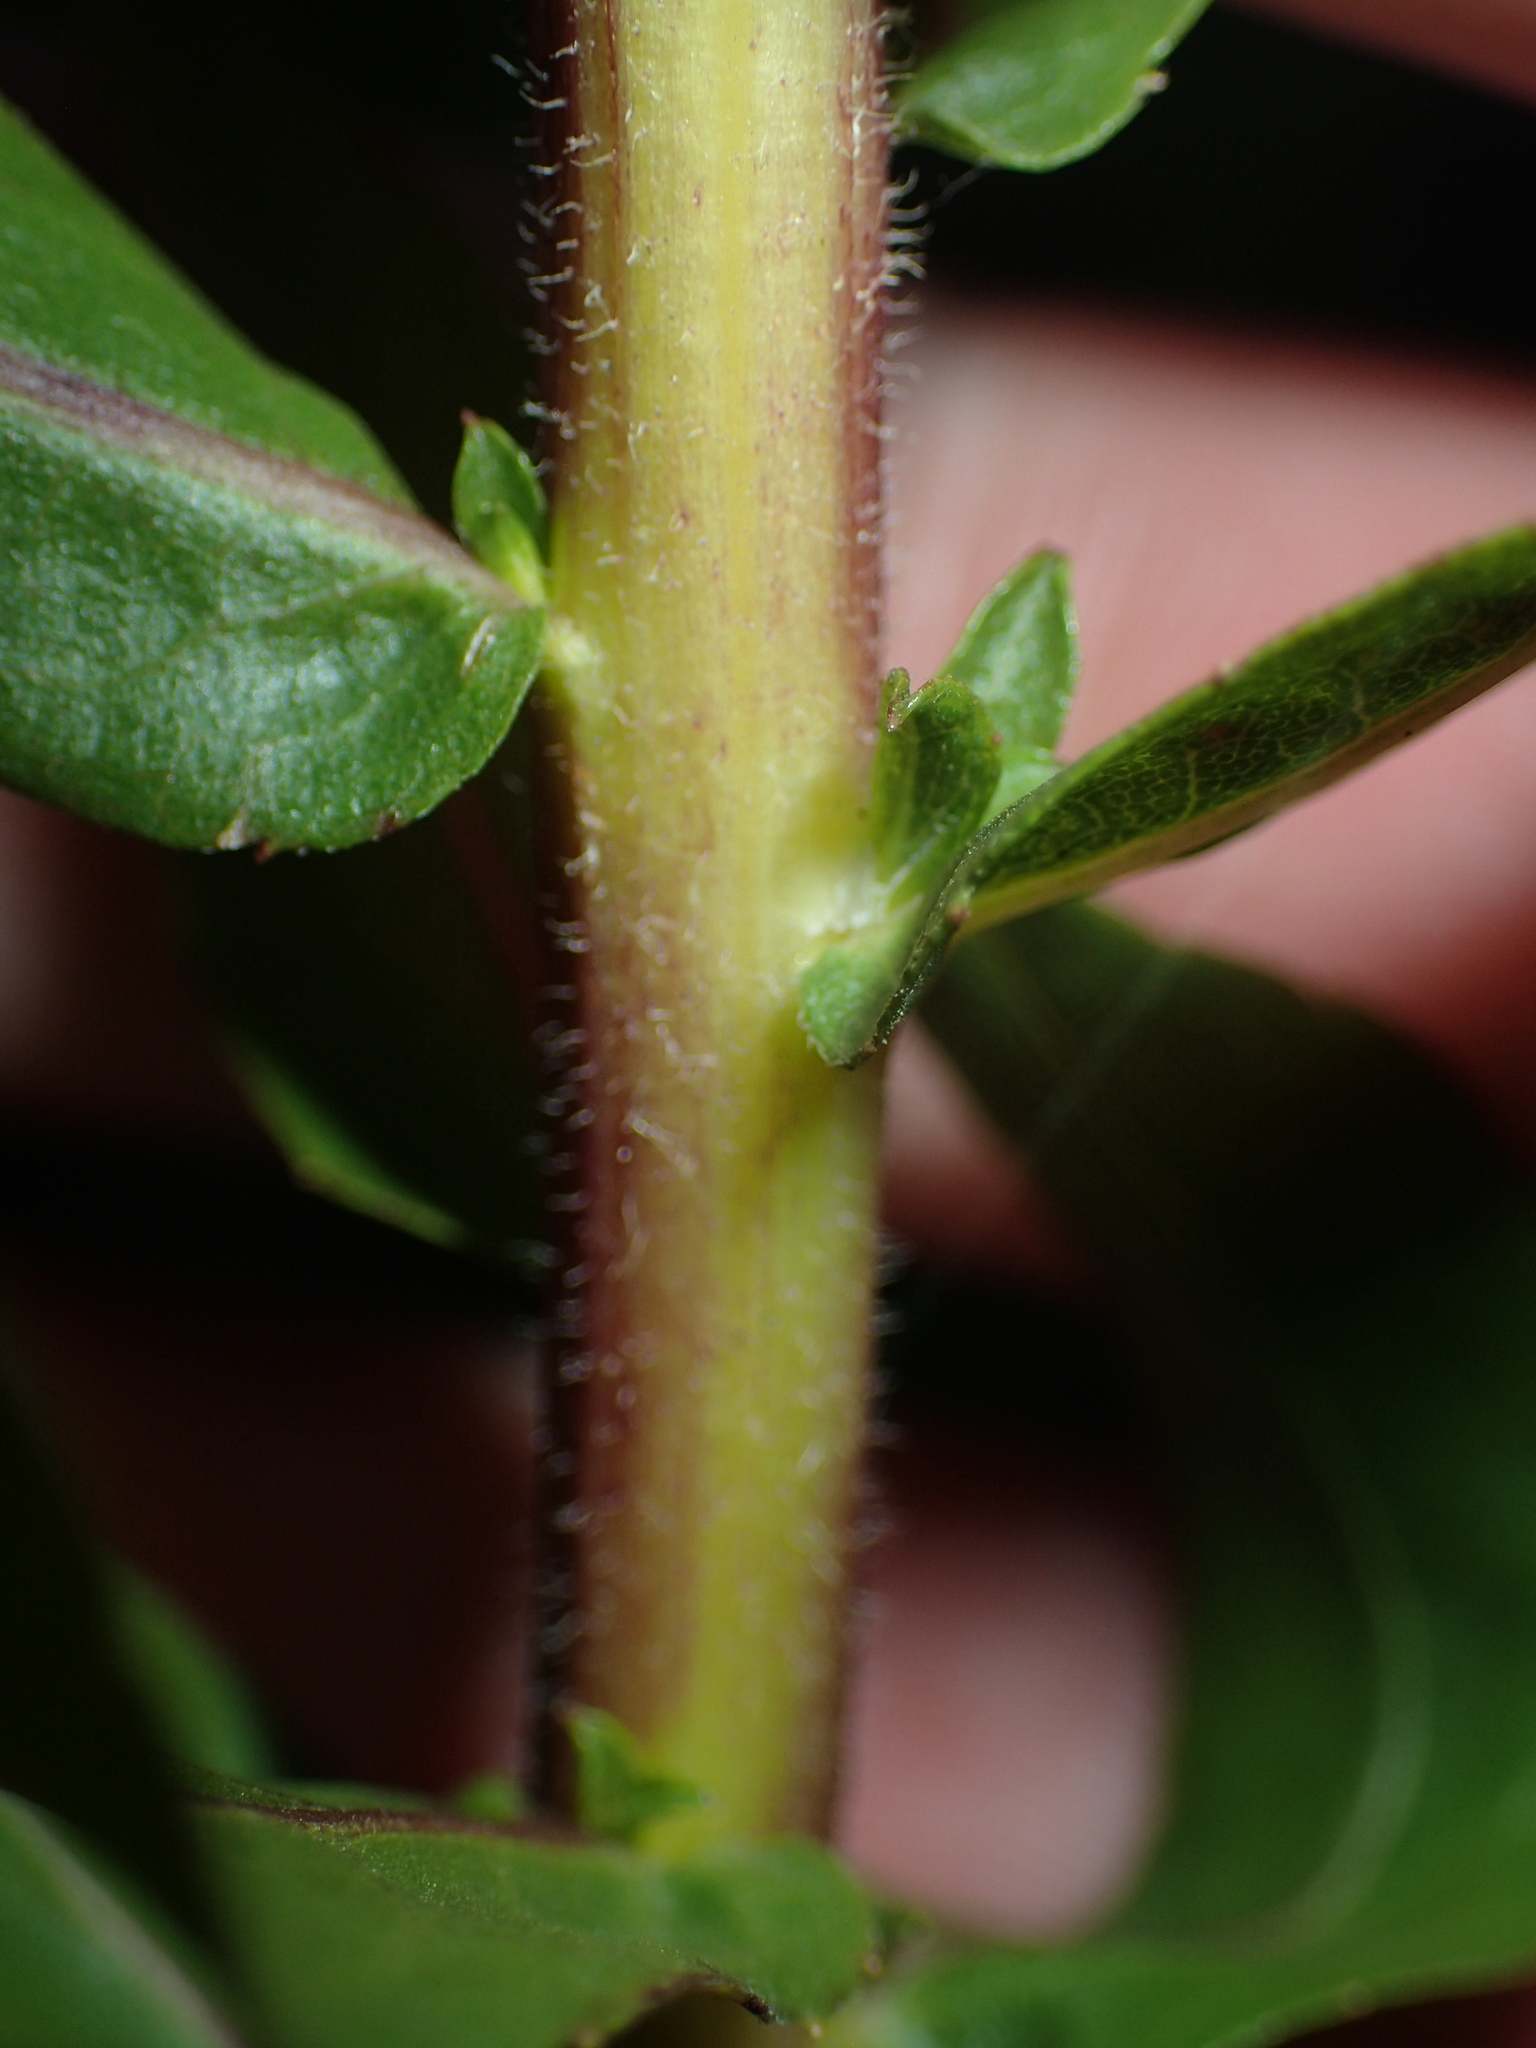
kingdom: Plantae
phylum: Tracheophyta
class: Magnoliopsida
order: Asterales
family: Asteraceae
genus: Solidago
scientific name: Solidago fistulosa
